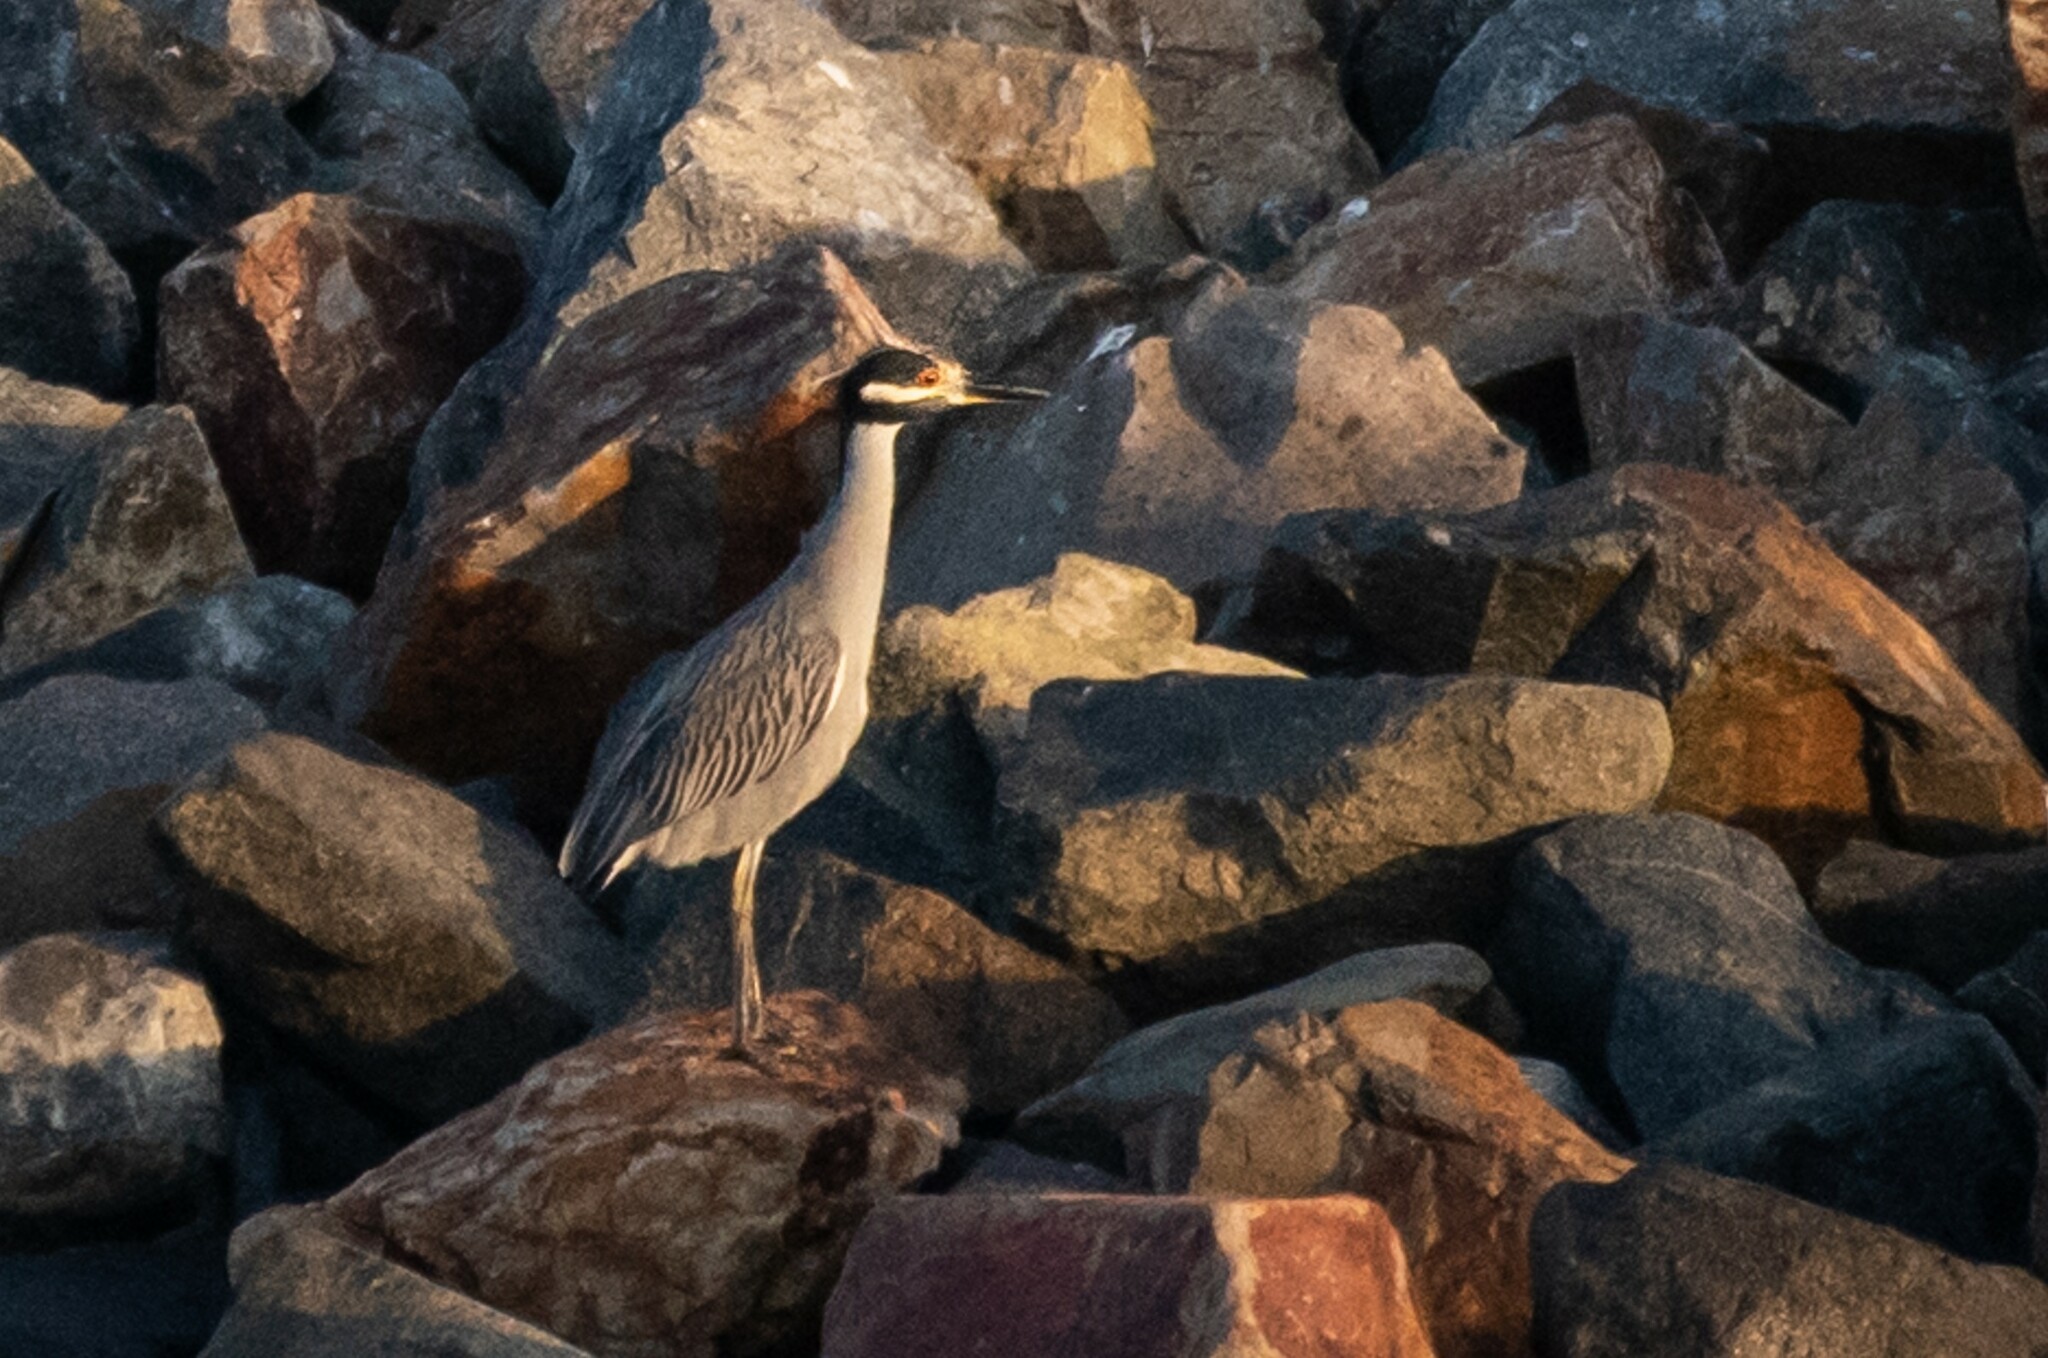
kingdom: Animalia
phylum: Chordata
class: Aves
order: Pelecaniformes
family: Ardeidae
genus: Nyctanassa
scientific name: Nyctanassa violacea
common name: Yellow-crowned night heron
